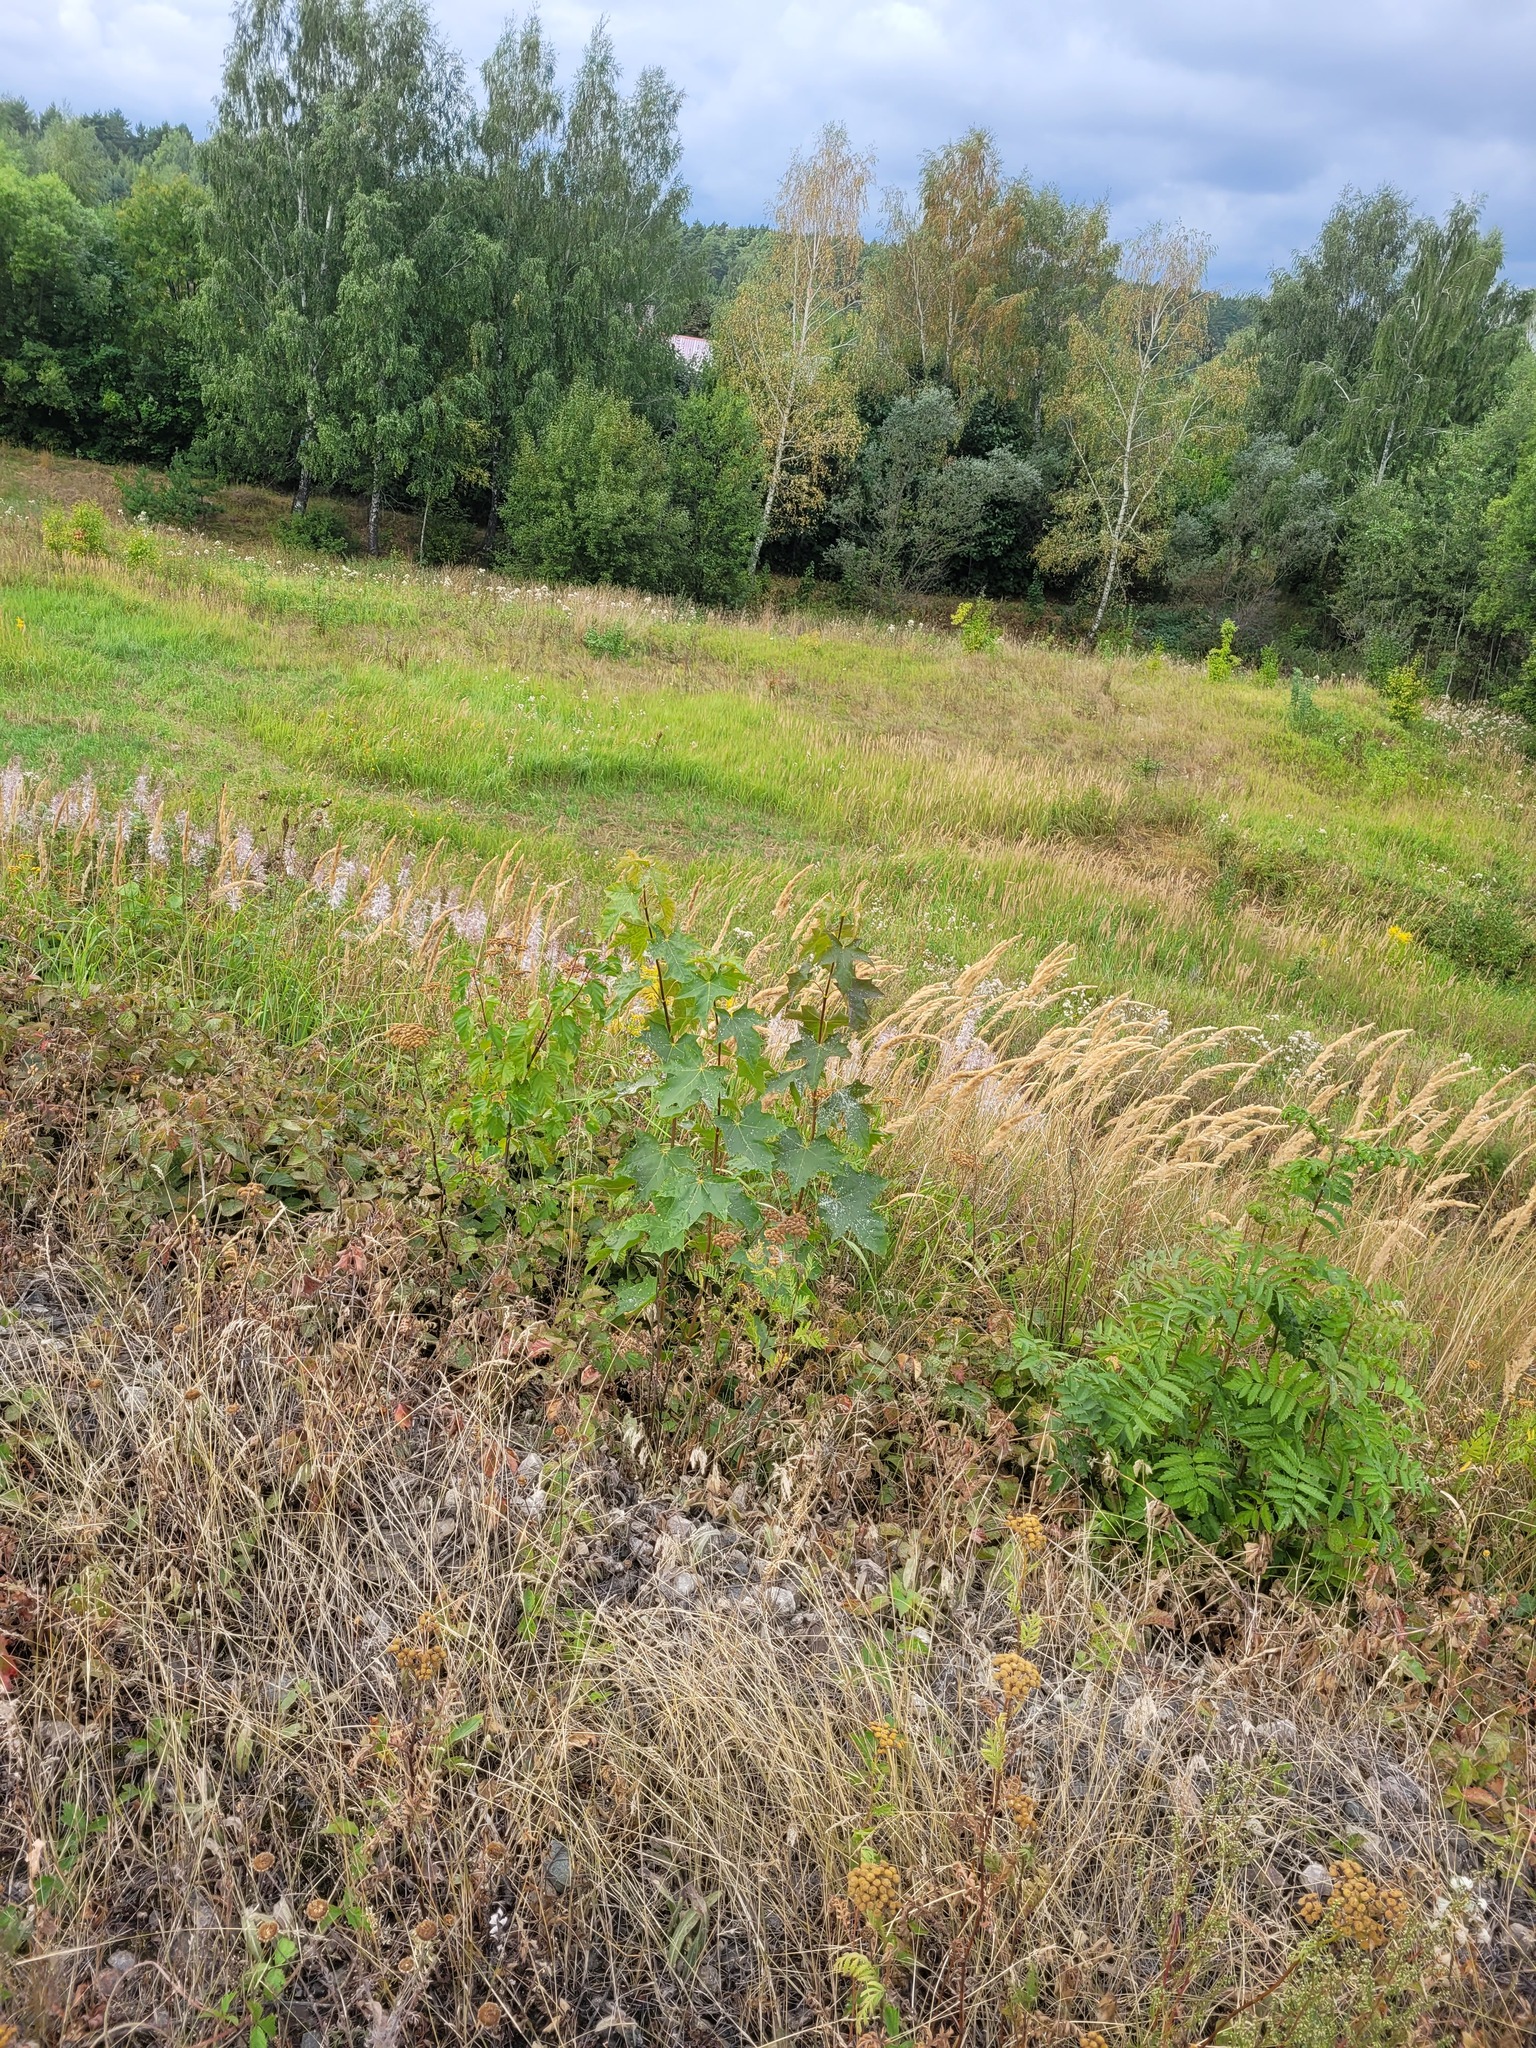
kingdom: Plantae
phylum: Tracheophyta
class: Magnoliopsida
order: Sapindales
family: Sapindaceae
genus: Acer
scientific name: Acer platanoides
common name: Norway maple
